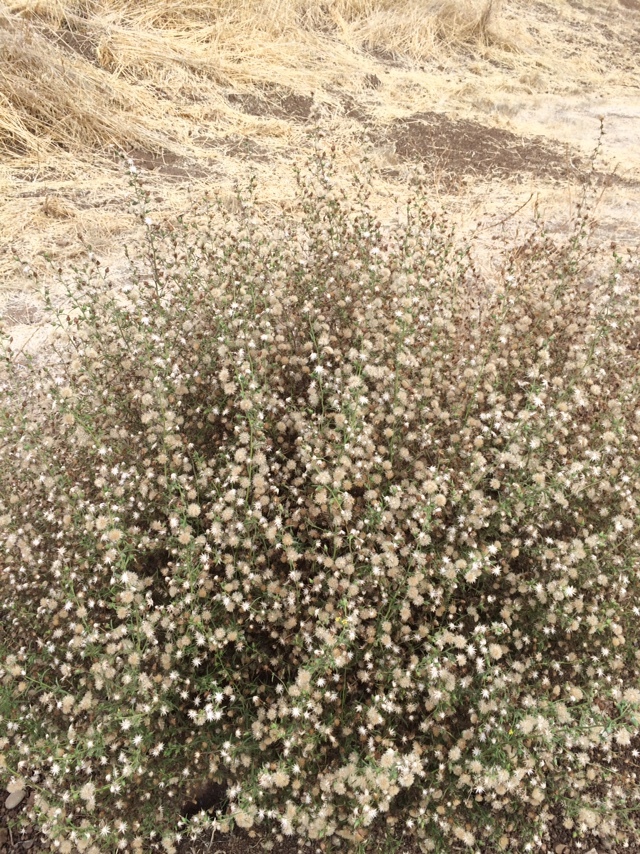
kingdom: Plantae
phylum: Tracheophyta
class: Magnoliopsida
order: Asterales
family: Asteraceae
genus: Dittrichia
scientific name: Dittrichia graveolens
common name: Stinking fleabane
